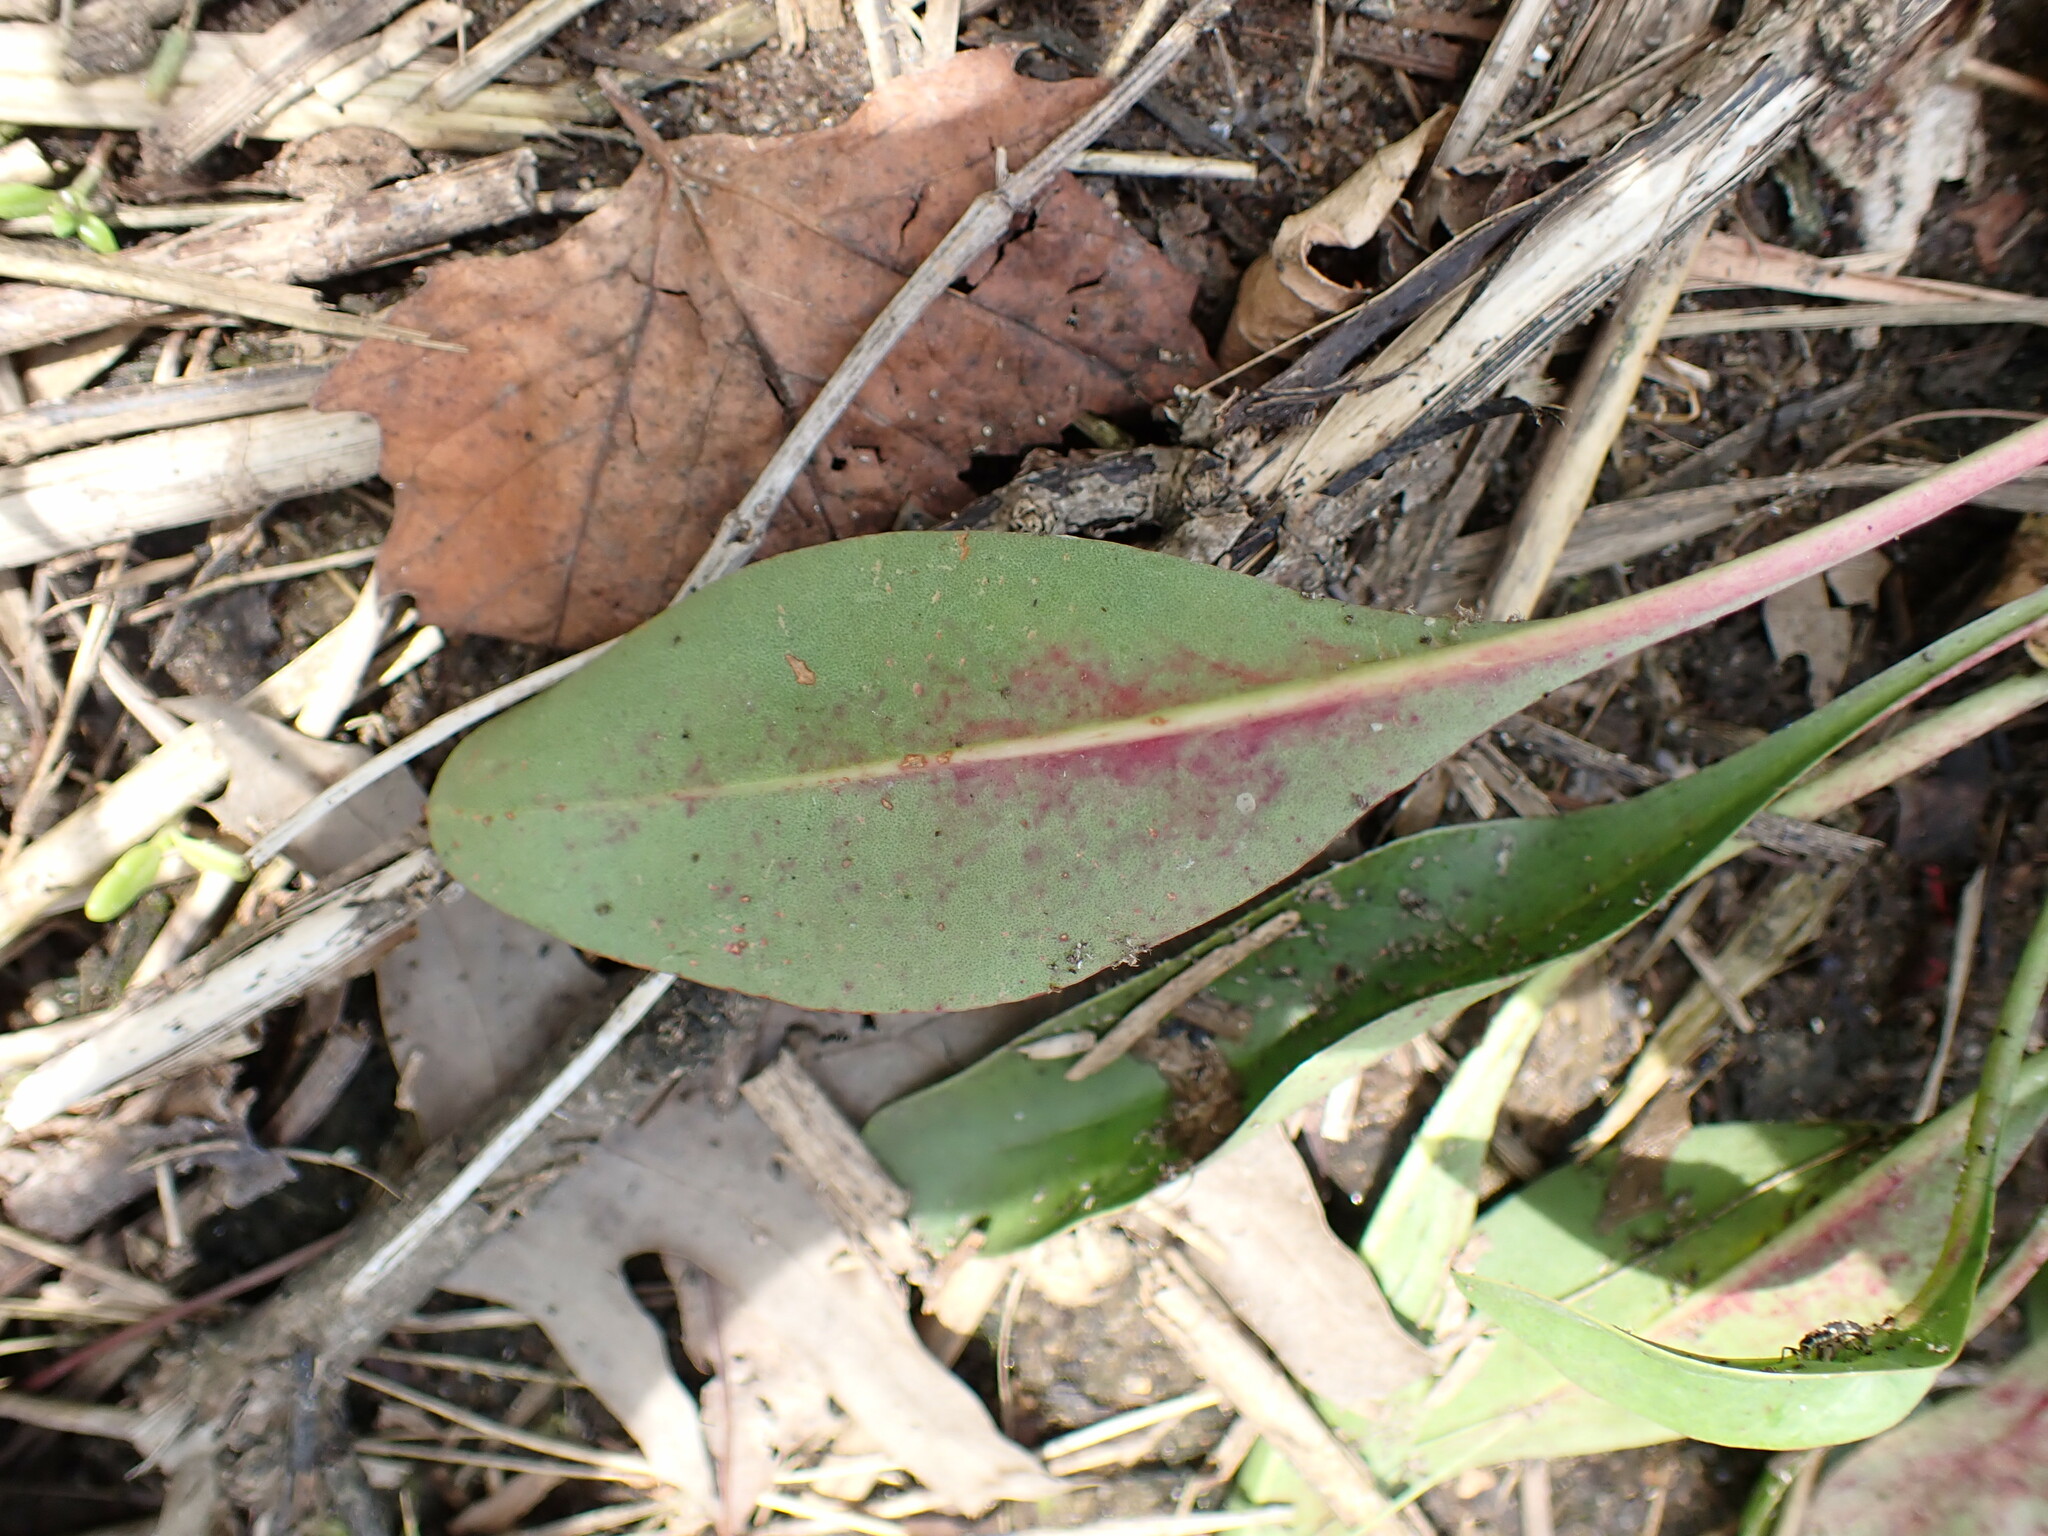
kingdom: Plantae
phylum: Tracheophyta
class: Magnoliopsida
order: Caryophyllales
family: Plumbaginaceae
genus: Limonium
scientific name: Limonium carolinianum
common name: Carolina sea lavender
